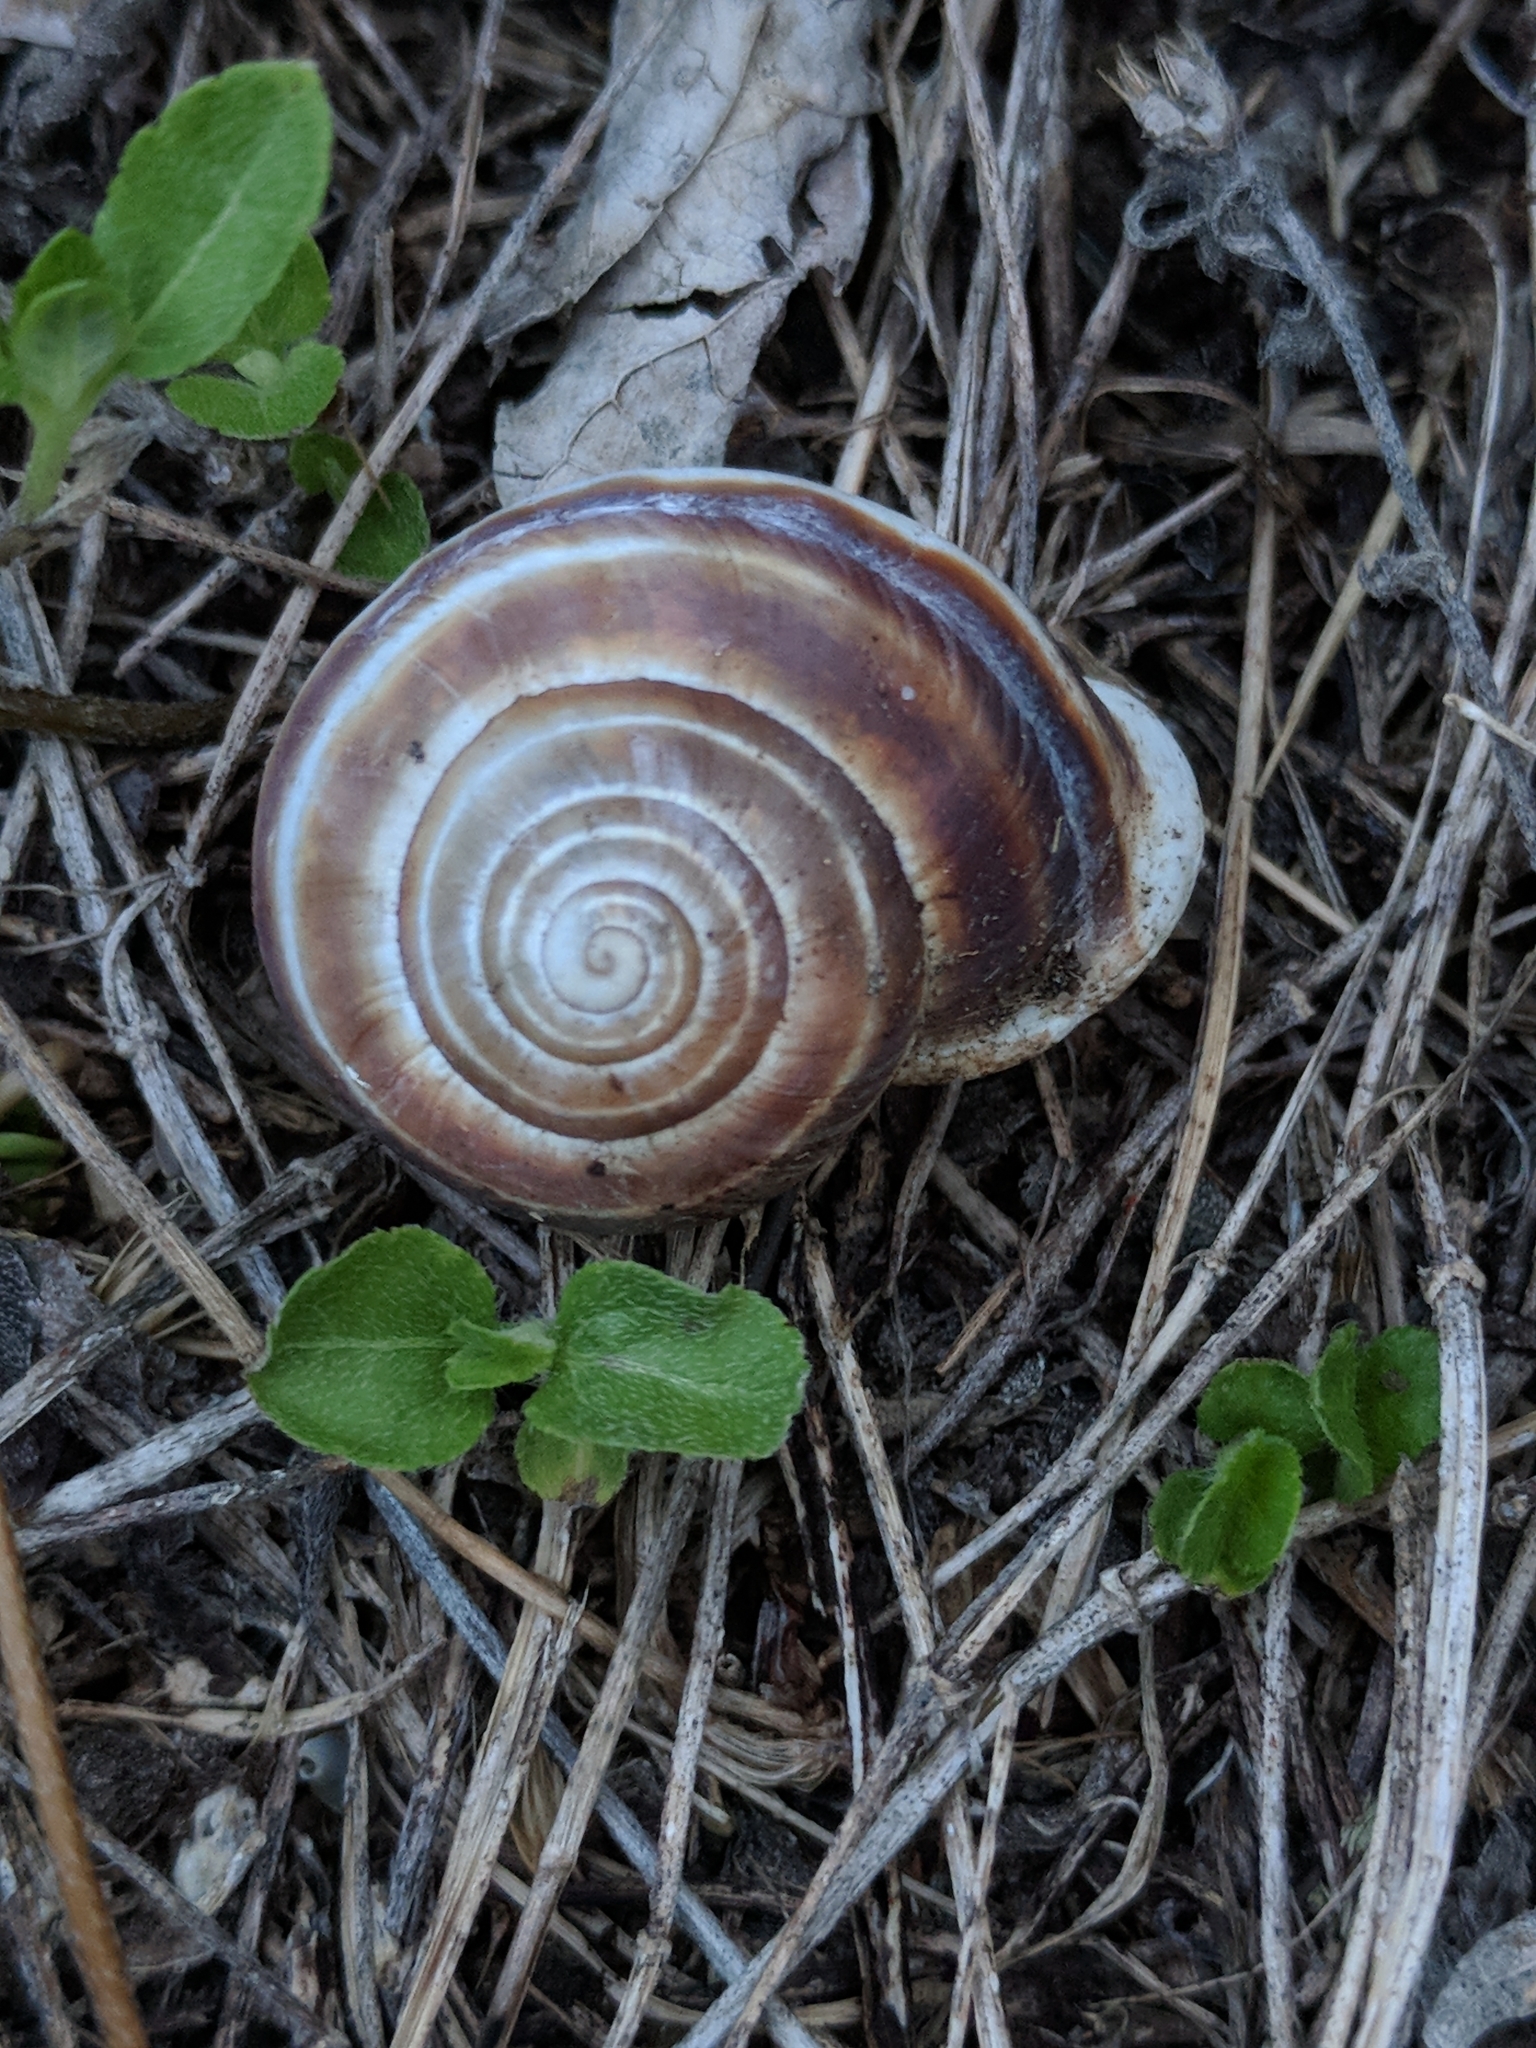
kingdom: Animalia
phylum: Mollusca
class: Gastropoda
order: Stylommatophora
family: Helicidae
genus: Otala
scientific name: Otala lactea
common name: Milk snail
